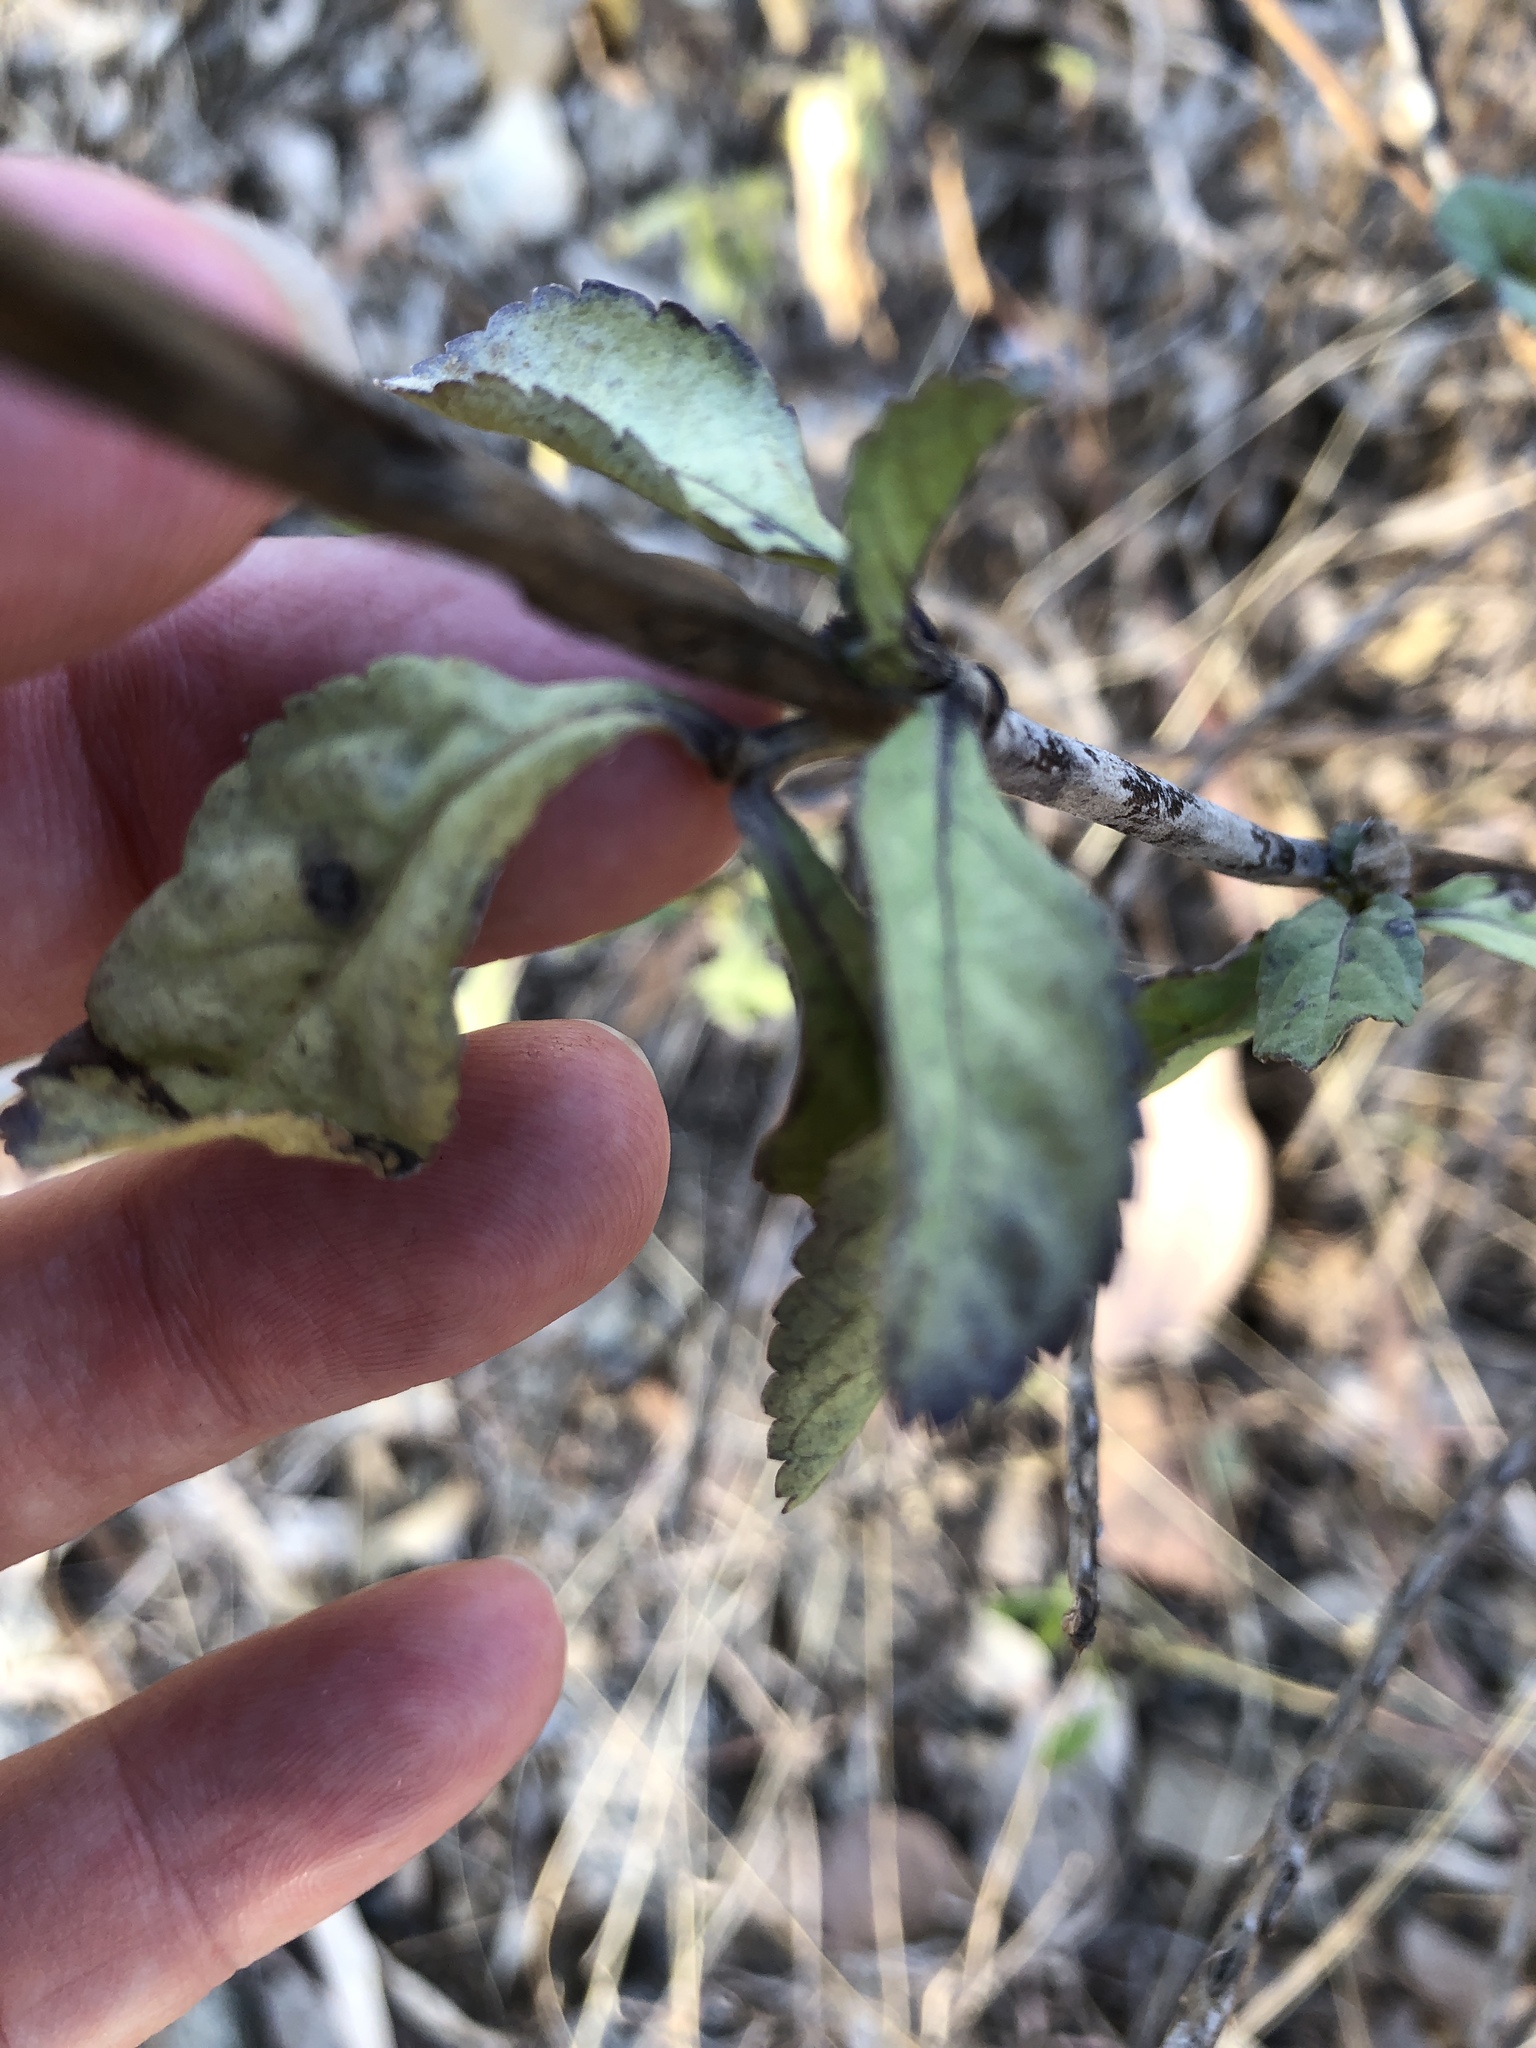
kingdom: Plantae
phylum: Tracheophyta
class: Magnoliopsida
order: Lamiales
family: Verbenaceae
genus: Stachytarpheta
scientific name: Stachytarpheta jamaicensis
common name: Light-blue snakeweed
